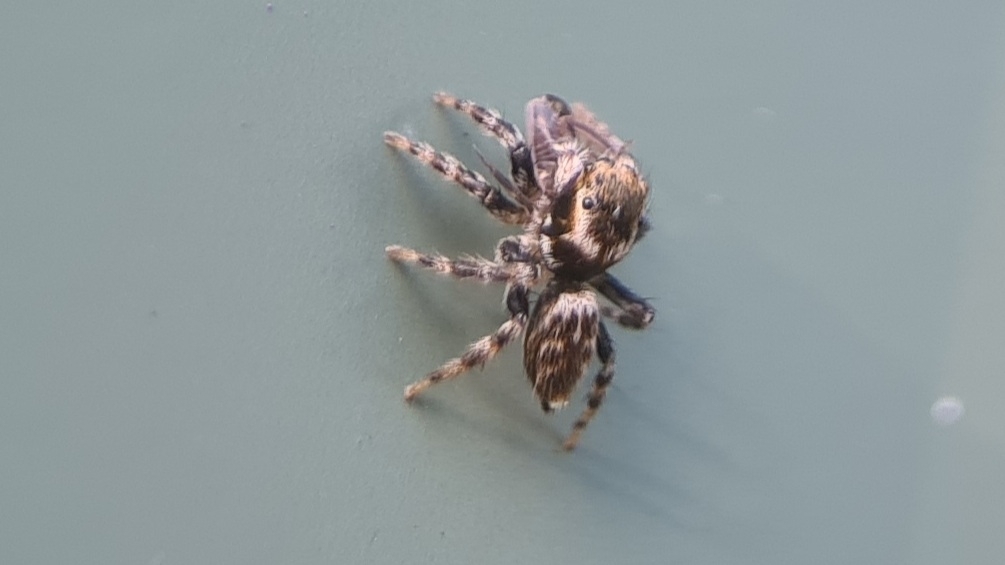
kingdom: Animalia
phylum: Arthropoda
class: Arachnida
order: Araneae
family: Salticidae
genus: Maratus
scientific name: Maratus griseus
